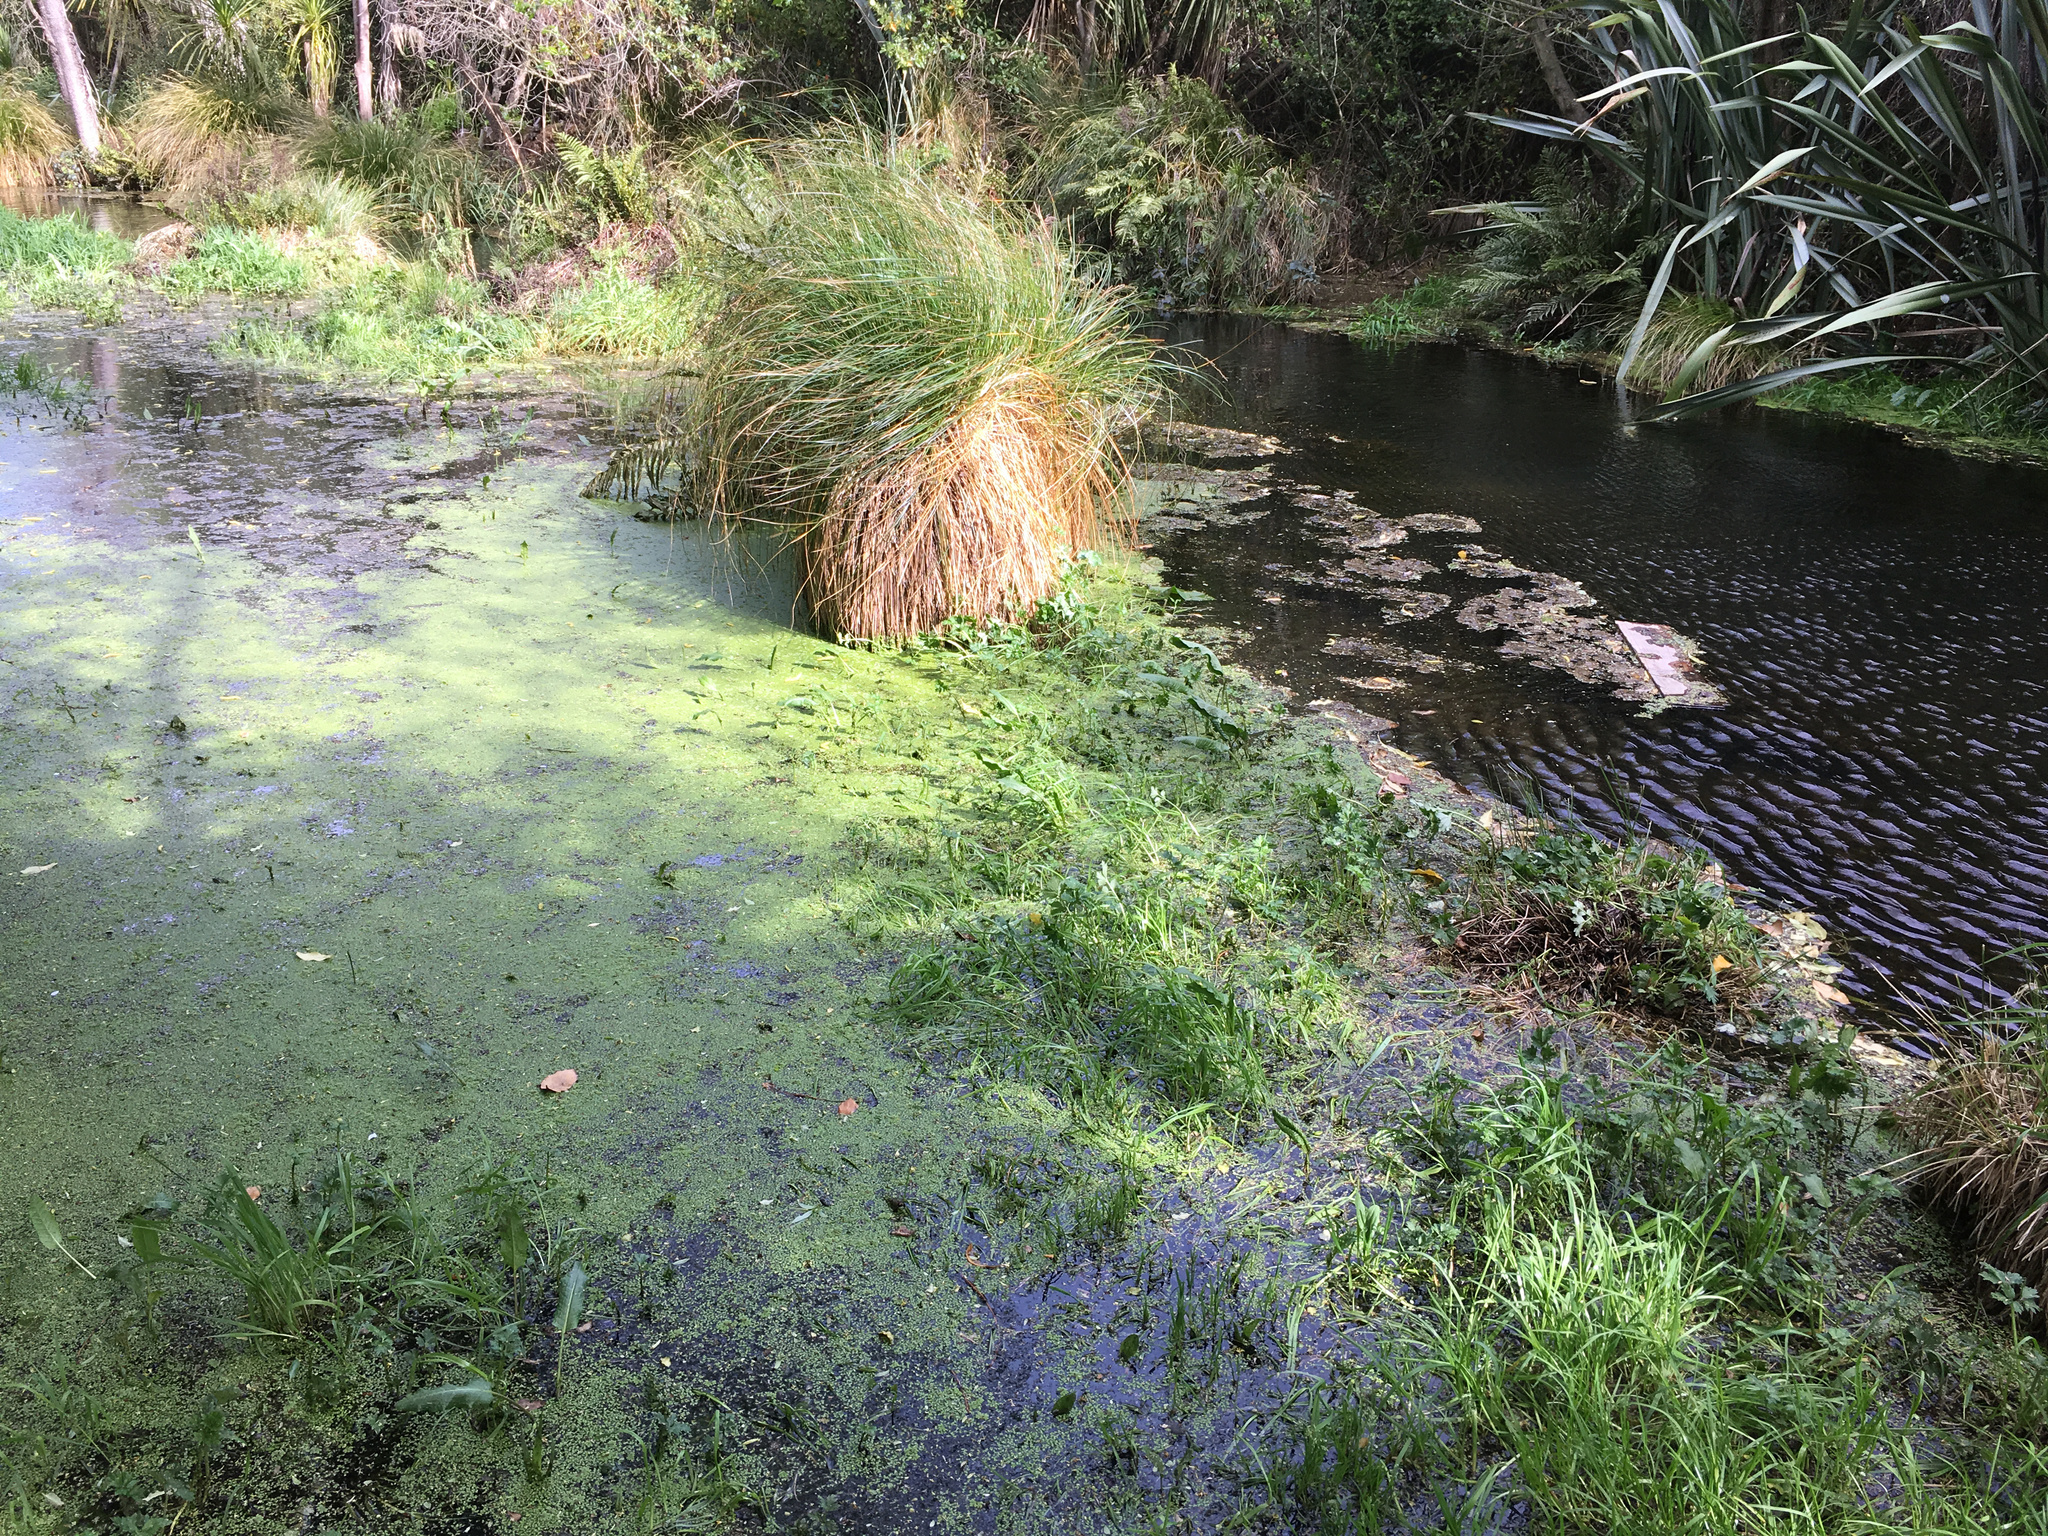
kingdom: Plantae
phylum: Tracheophyta
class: Liliopsida
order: Poales
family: Cyperaceae
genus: Carex
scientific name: Carex secta
